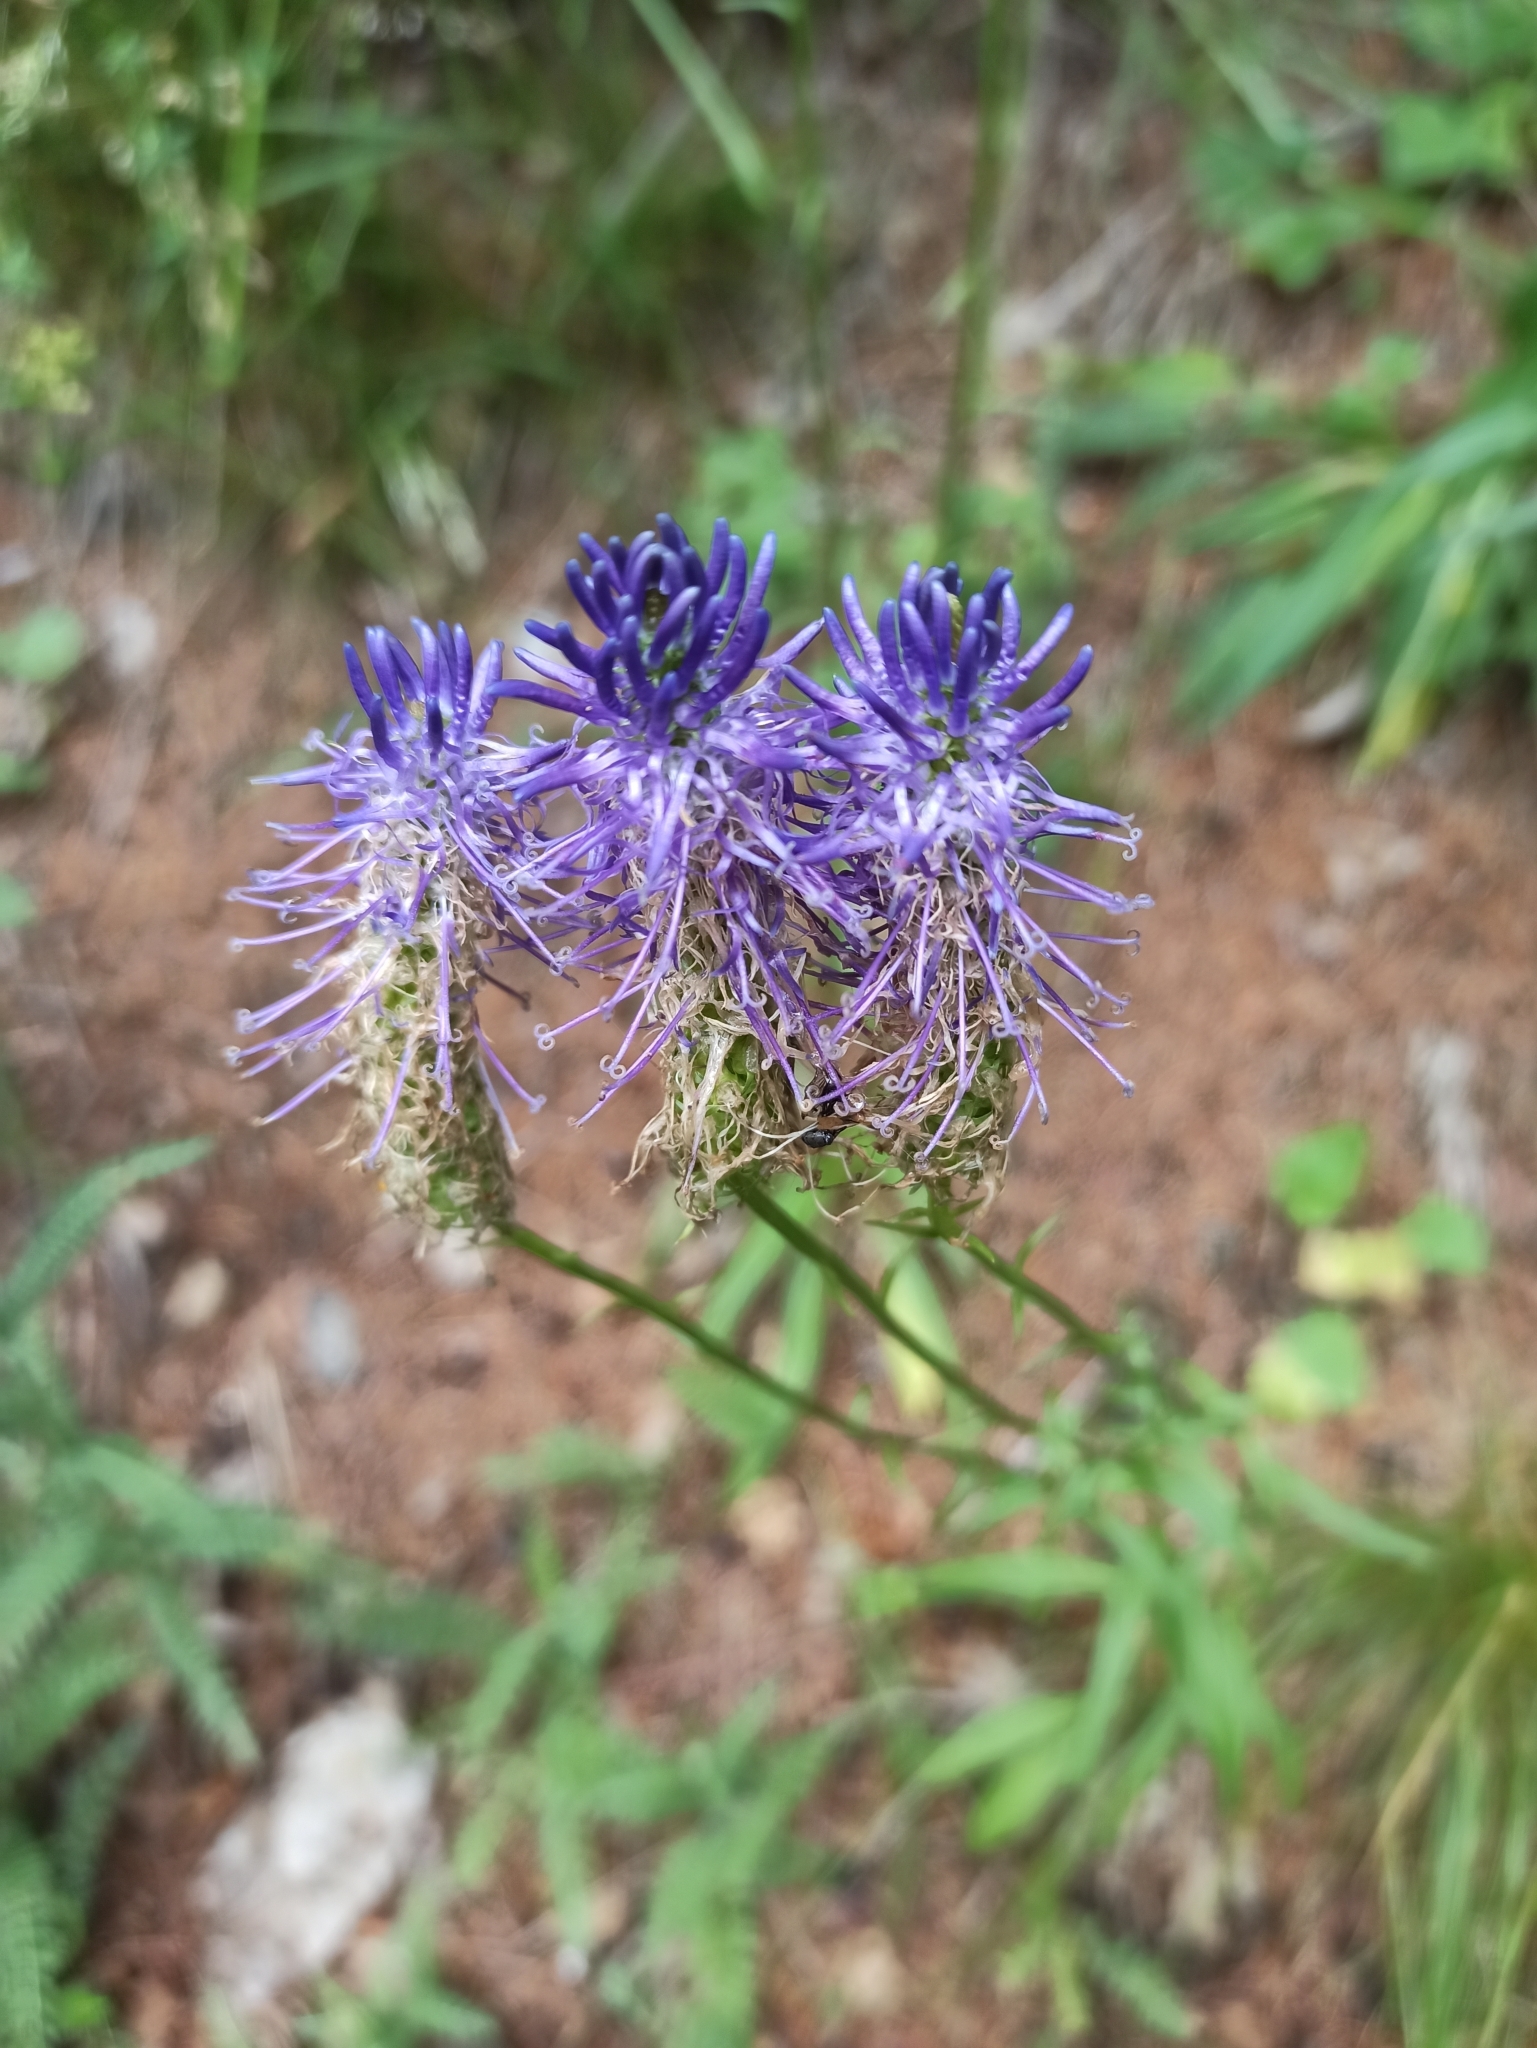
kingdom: Plantae
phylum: Tracheophyta
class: Magnoliopsida
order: Asterales
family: Campanulaceae
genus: Phyteuma
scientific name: Phyteuma persicifolium
